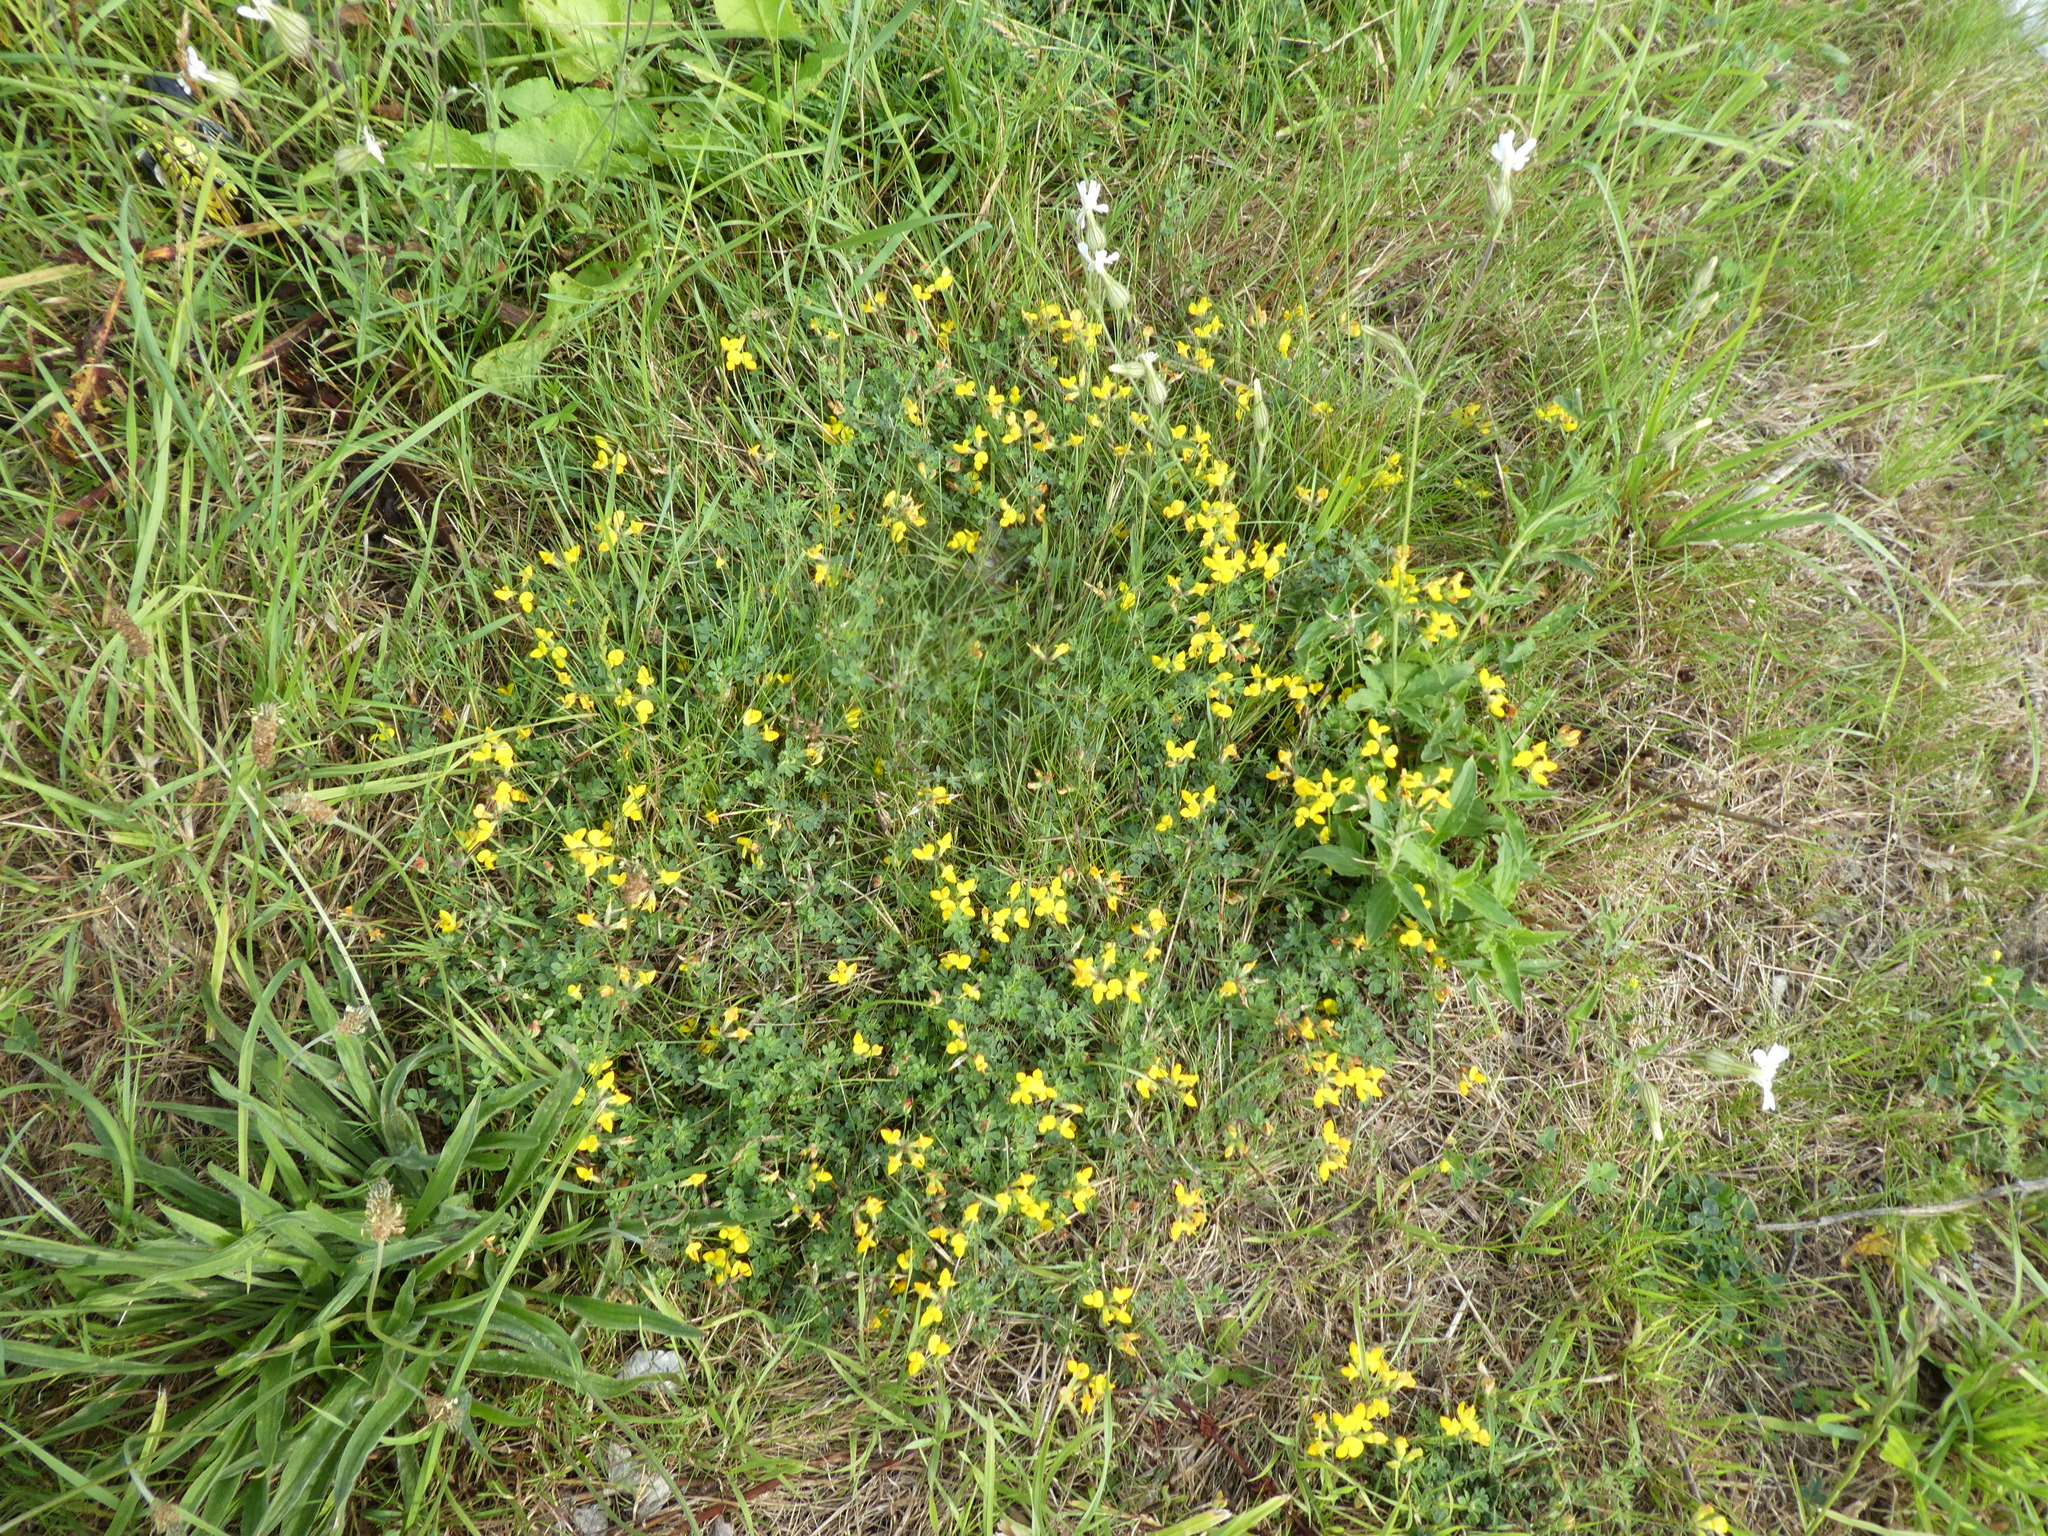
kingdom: Plantae
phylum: Tracheophyta
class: Magnoliopsida
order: Fabales
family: Fabaceae
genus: Lotus
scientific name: Lotus corniculatus
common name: Common bird's-foot-trefoil
